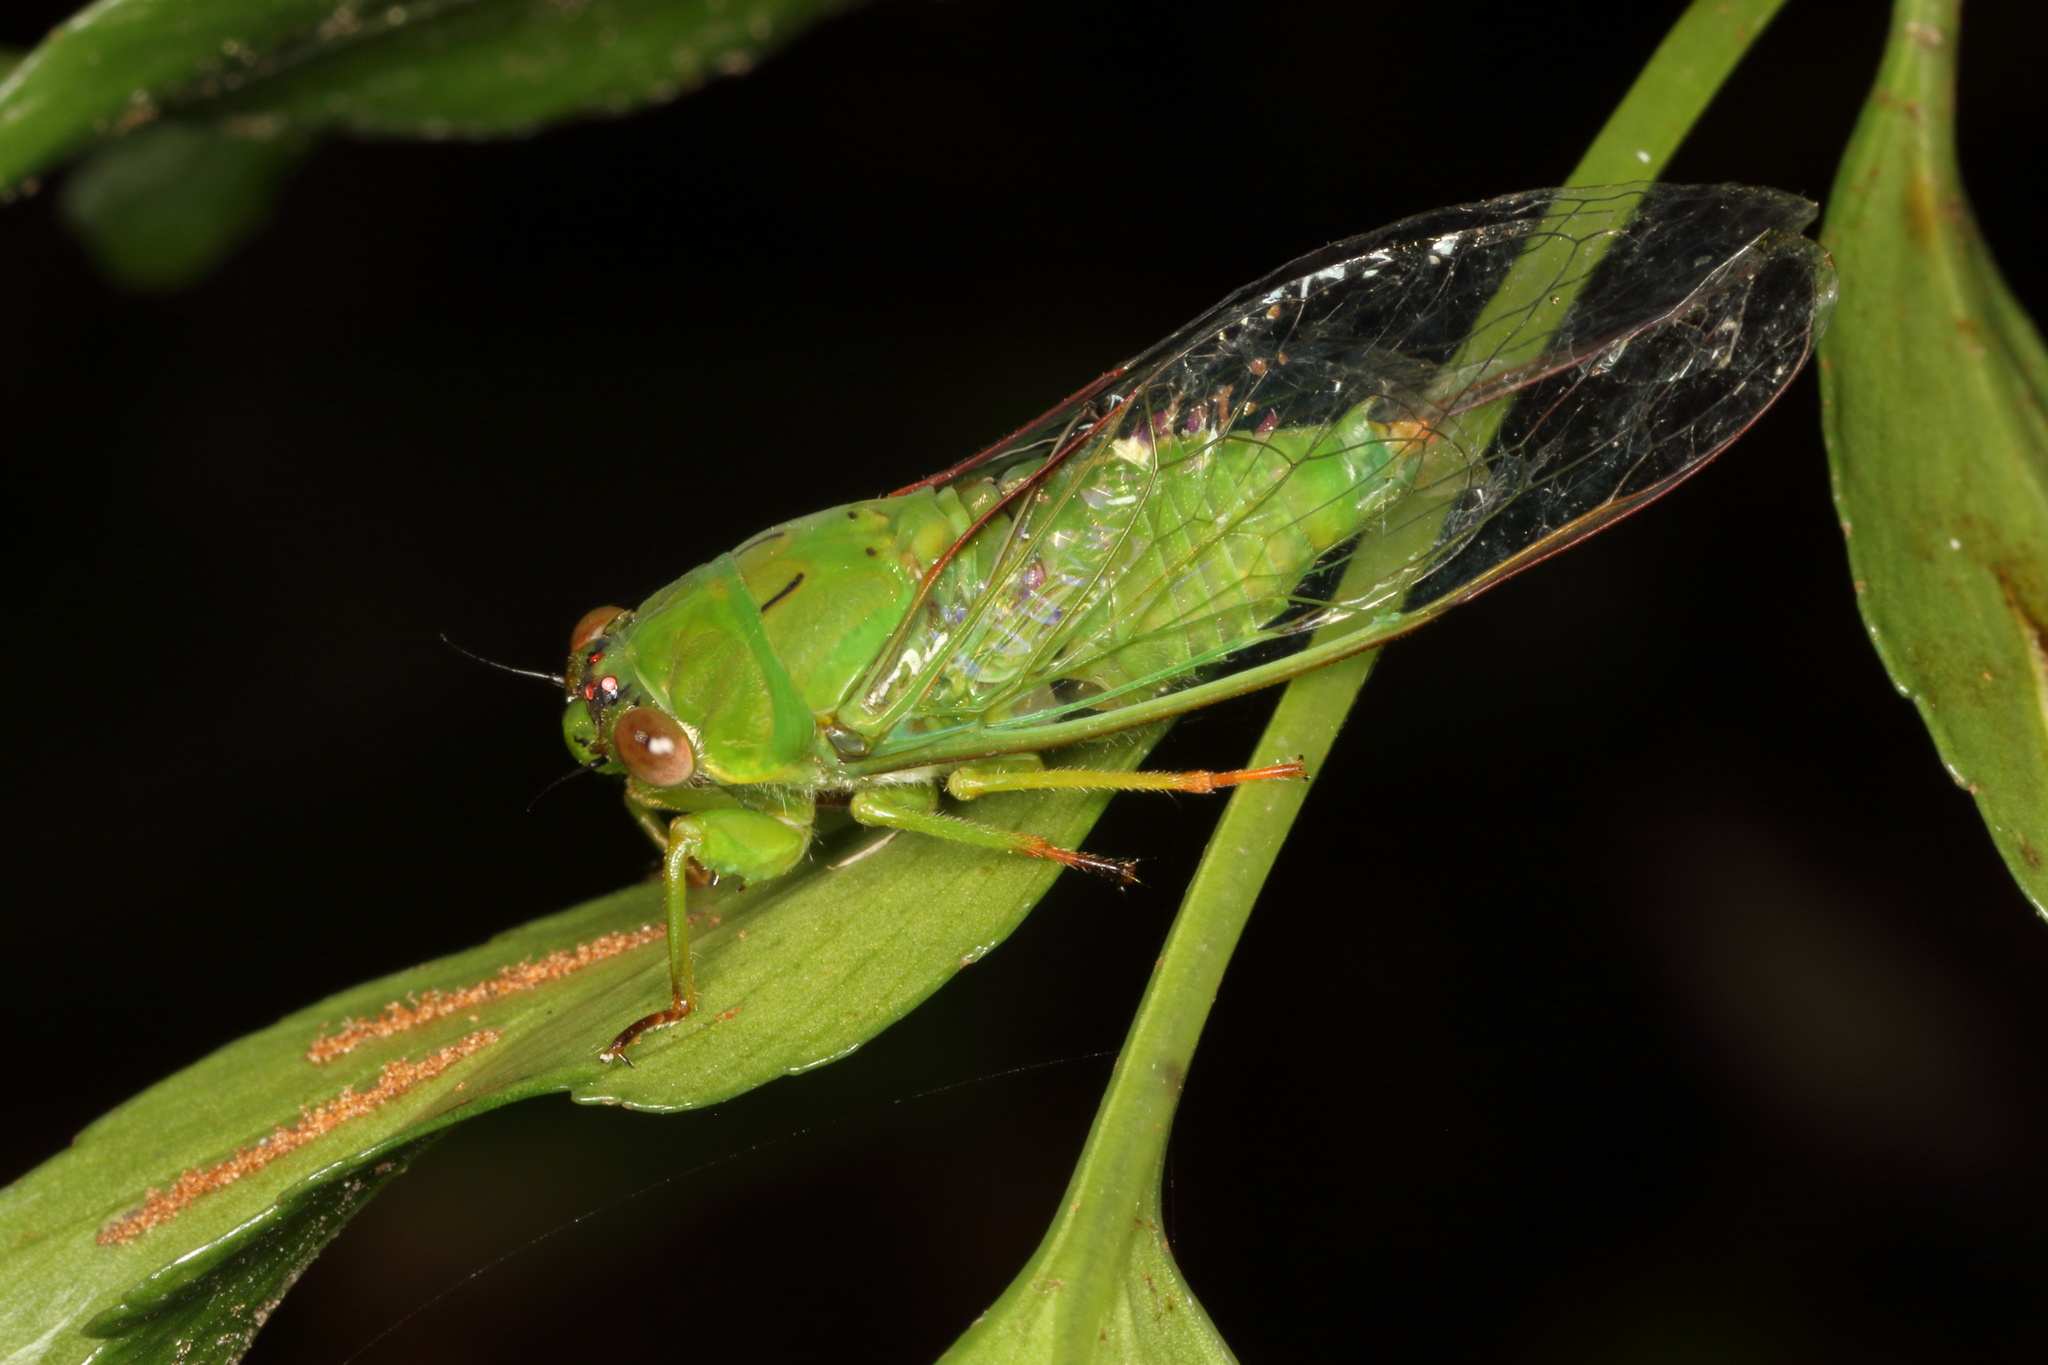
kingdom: Animalia
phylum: Arthropoda
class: Insecta
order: Hemiptera
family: Cicadidae
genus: Kikihia
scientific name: Kikihia ochrina
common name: April green cicada
